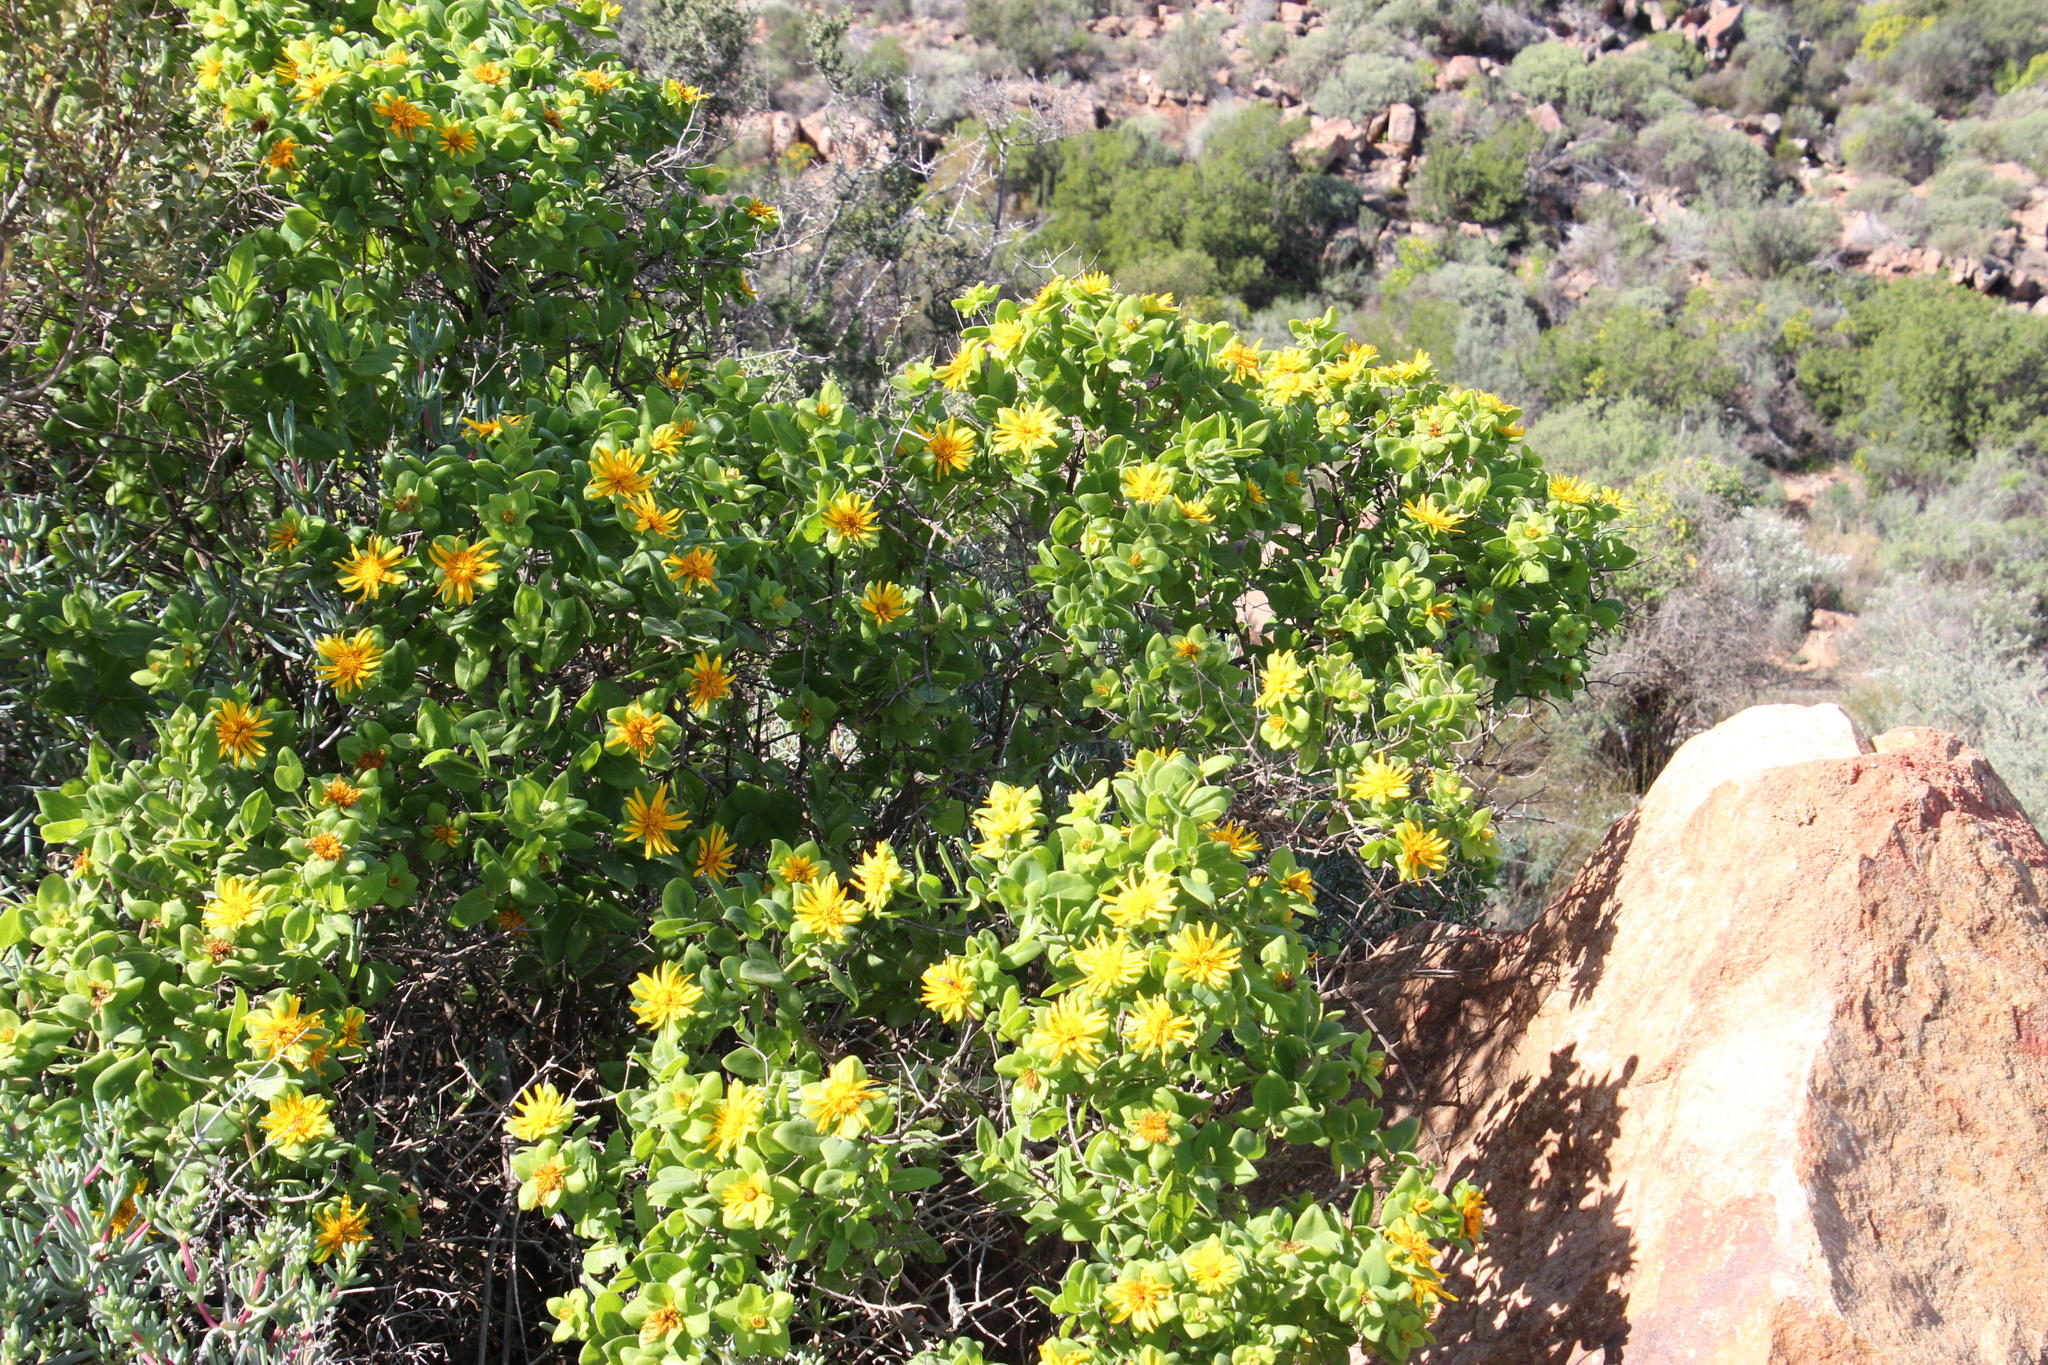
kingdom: Plantae
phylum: Tracheophyta
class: Magnoliopsida
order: Asterales
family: Asteraceae
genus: Didelta
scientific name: Didelta spinosa
